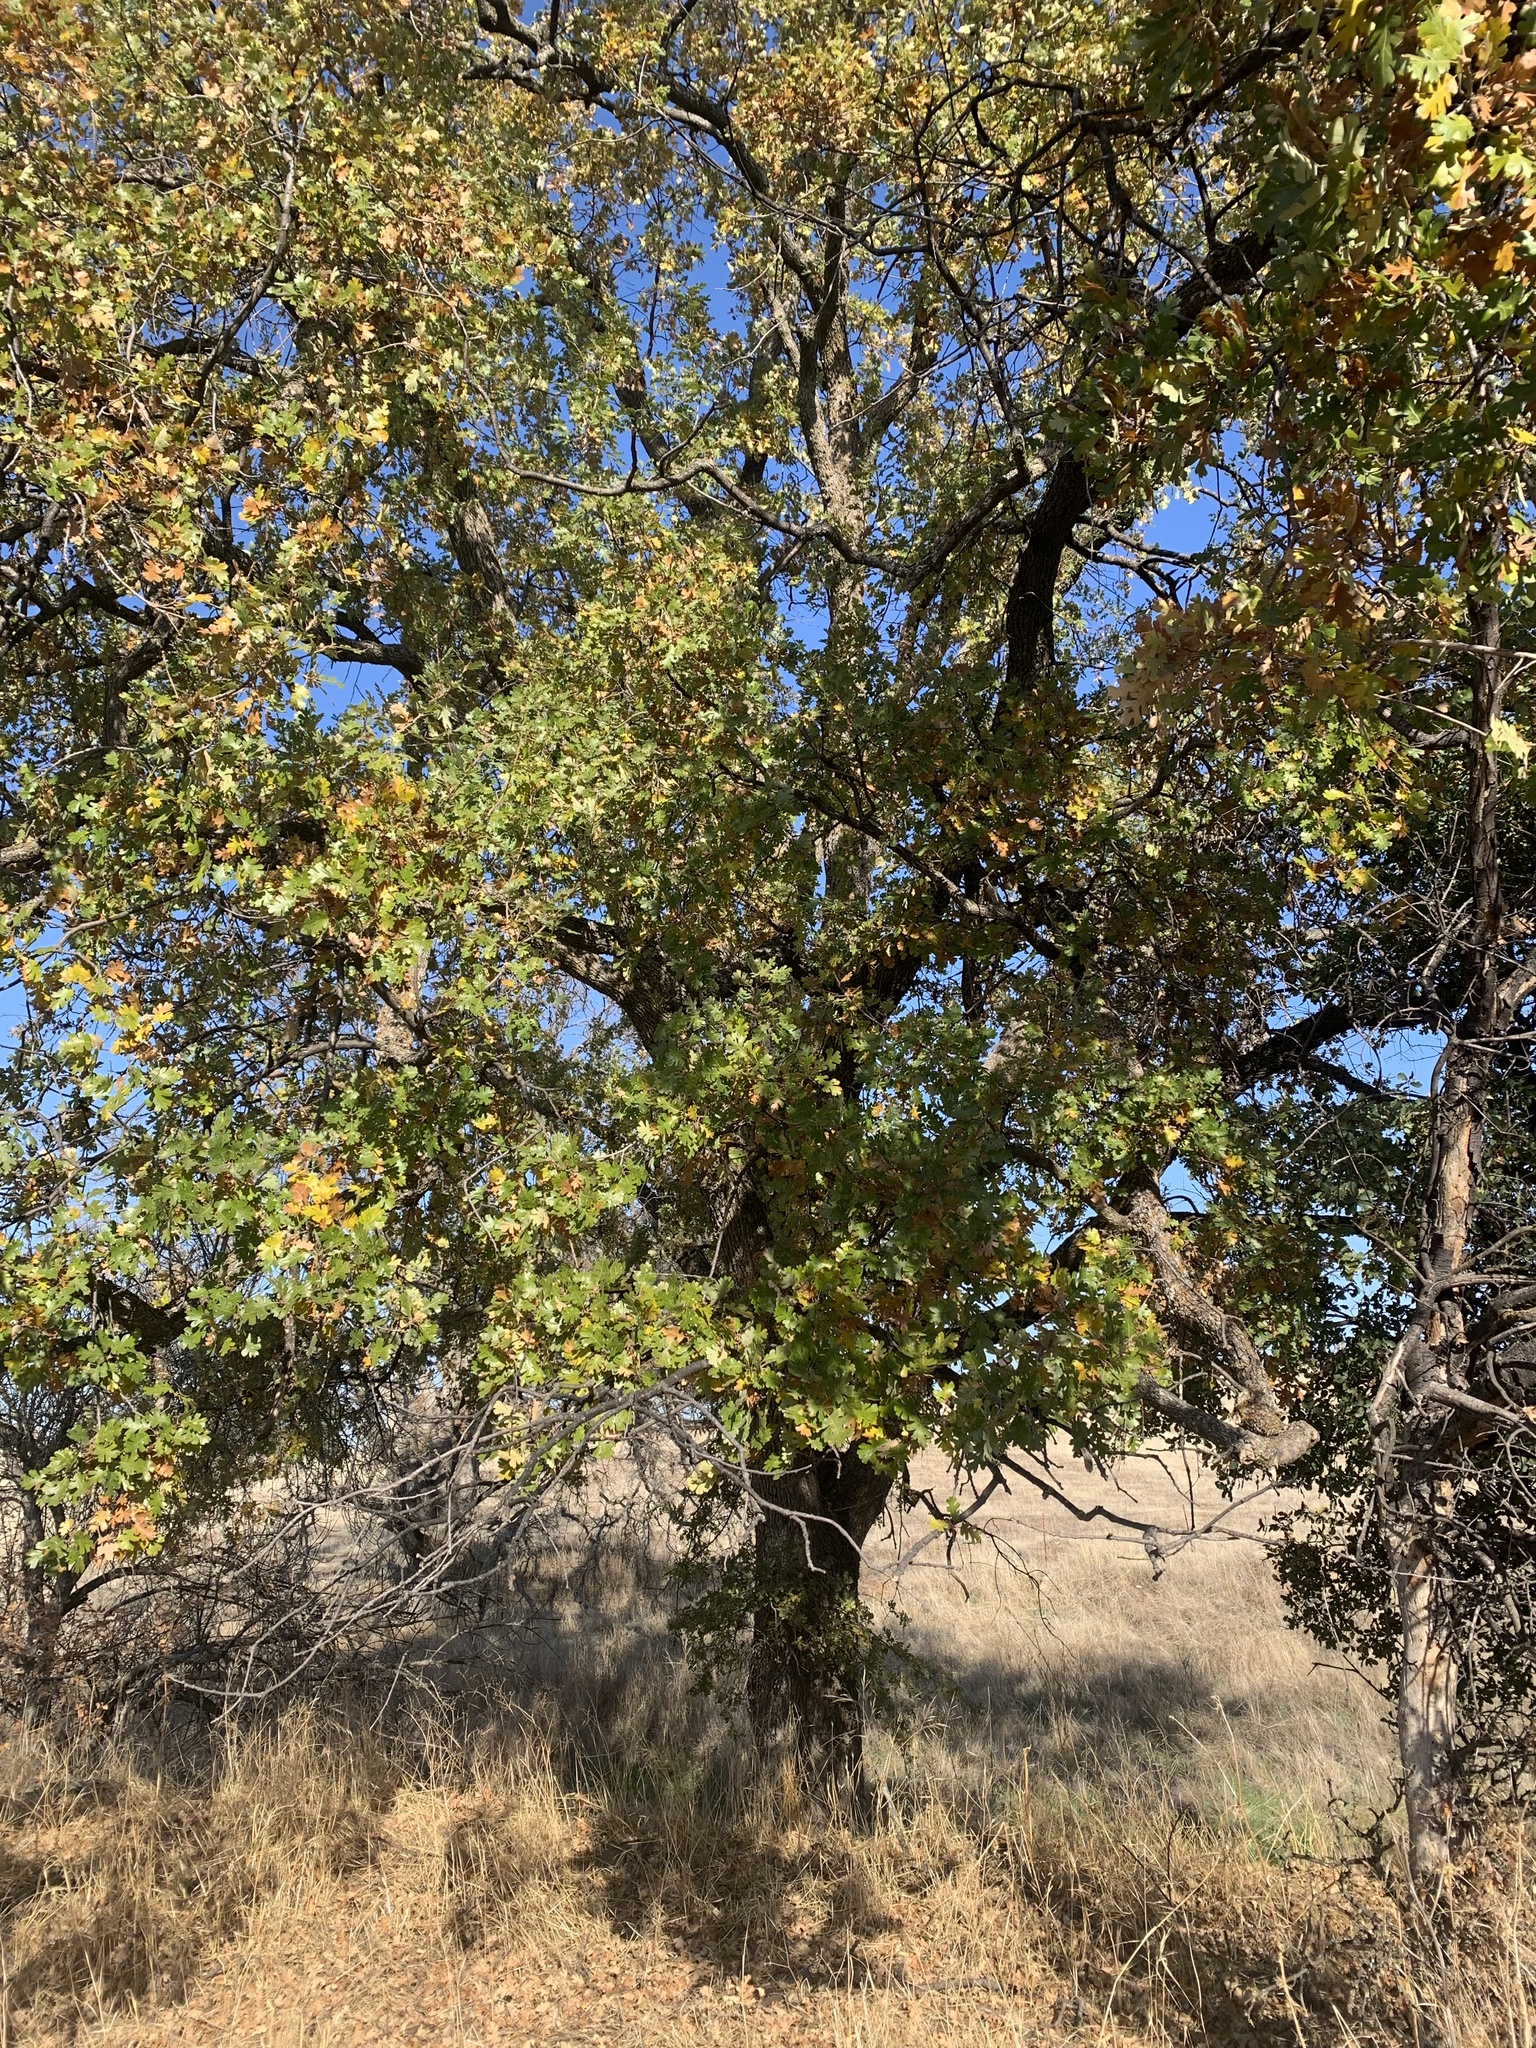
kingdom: Plantae
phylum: Tracheophyta
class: Magnoliopsida
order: Fagales
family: Fagaceae
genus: Quercus
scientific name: Quercus lobata
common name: Valley oak
